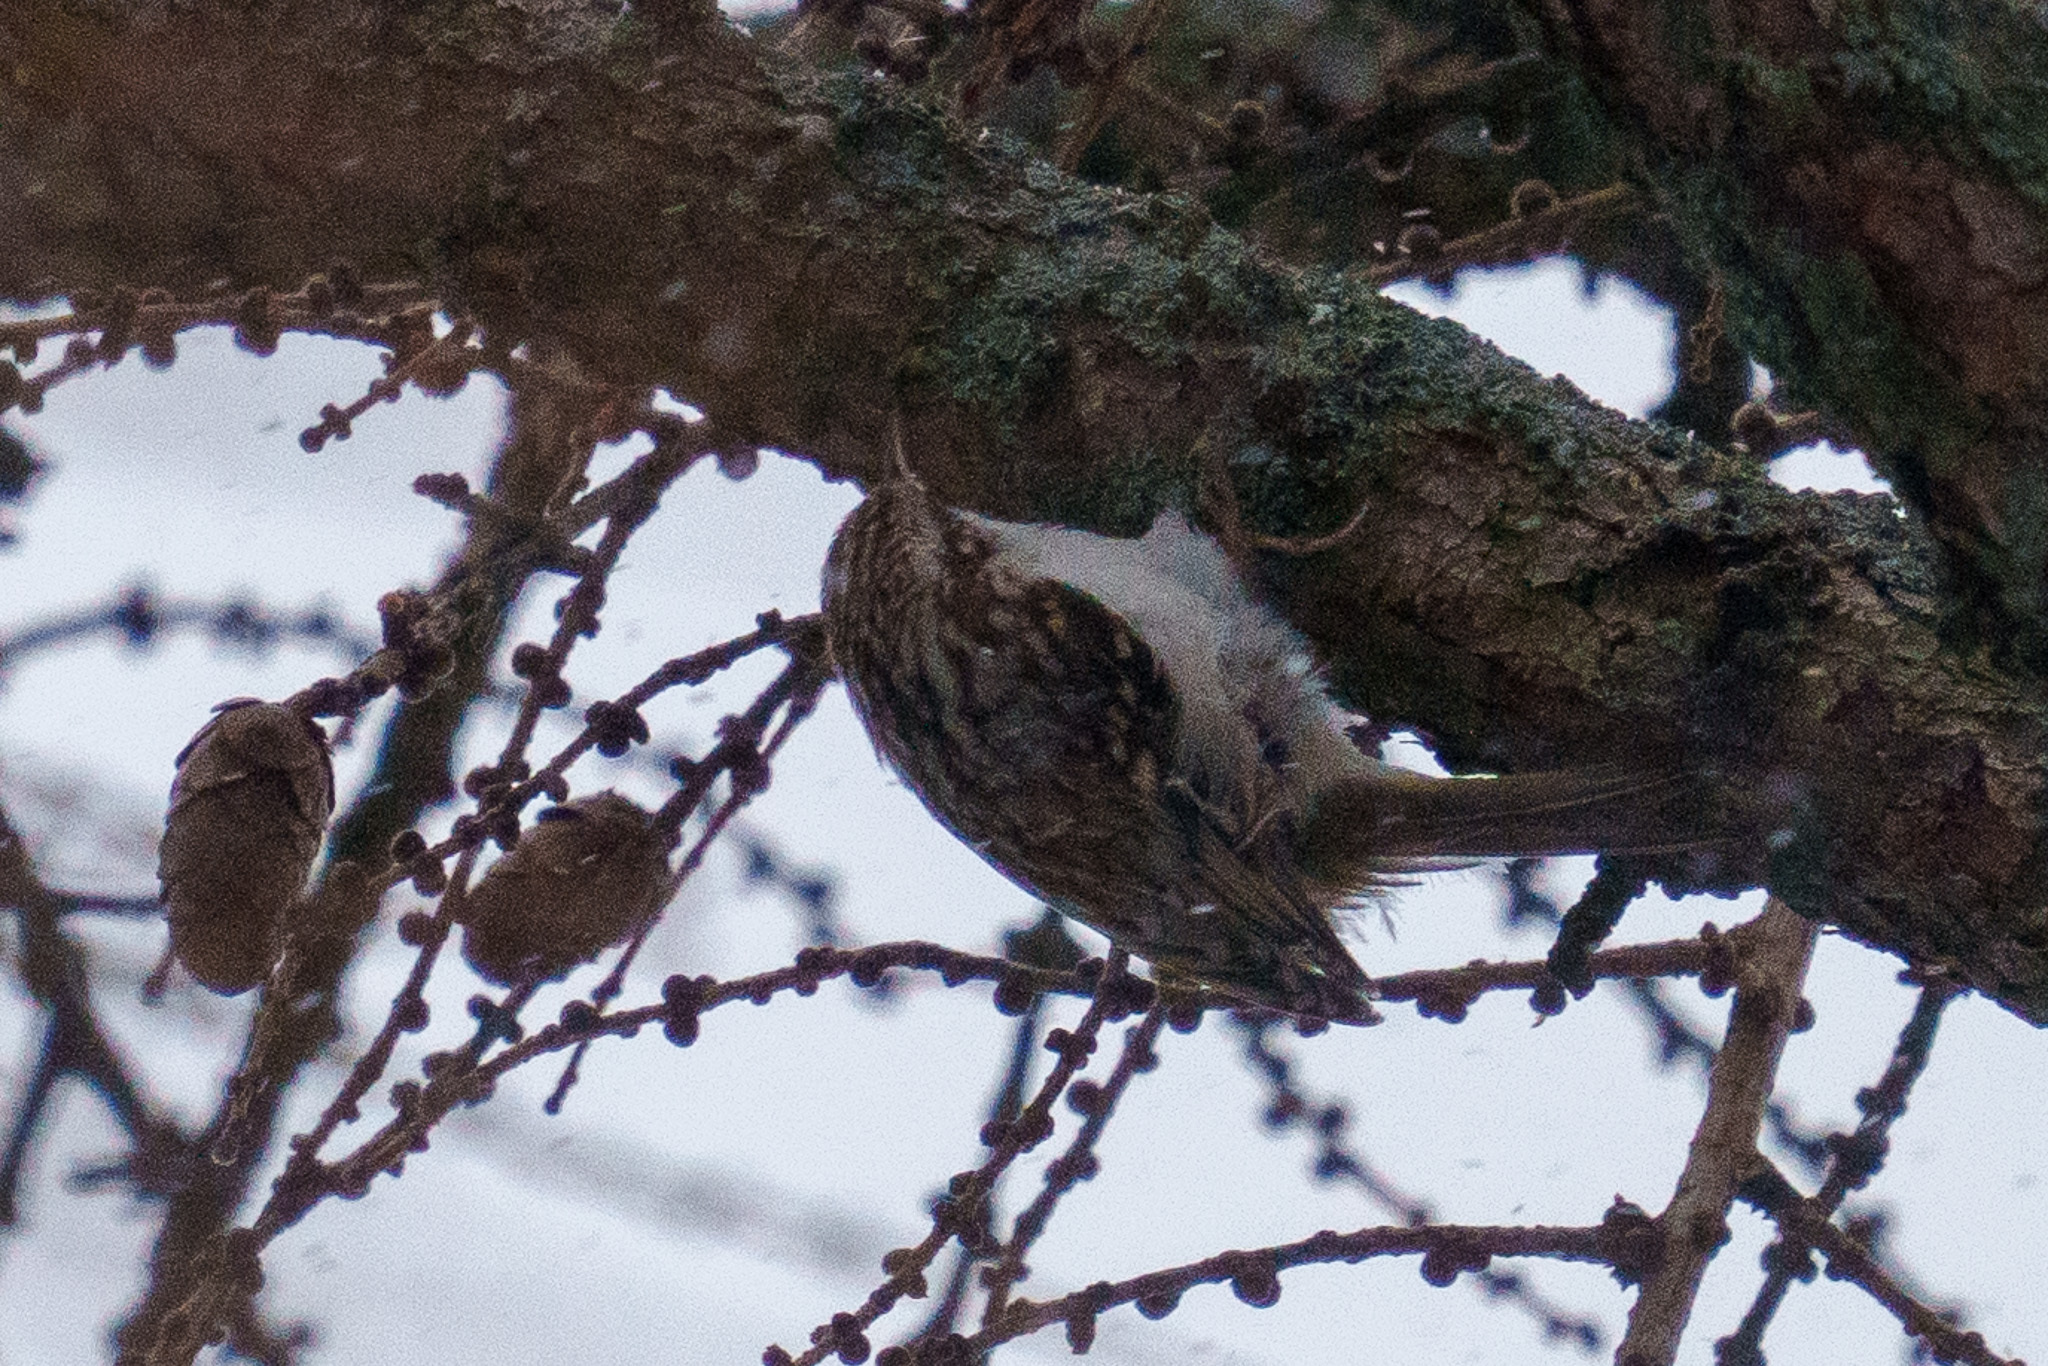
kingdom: Animalia
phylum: Chordata
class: Aves
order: Passeriformes
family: Certhiidae
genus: Certhia
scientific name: Certhia familiaris
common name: Eurasian treecreeper
